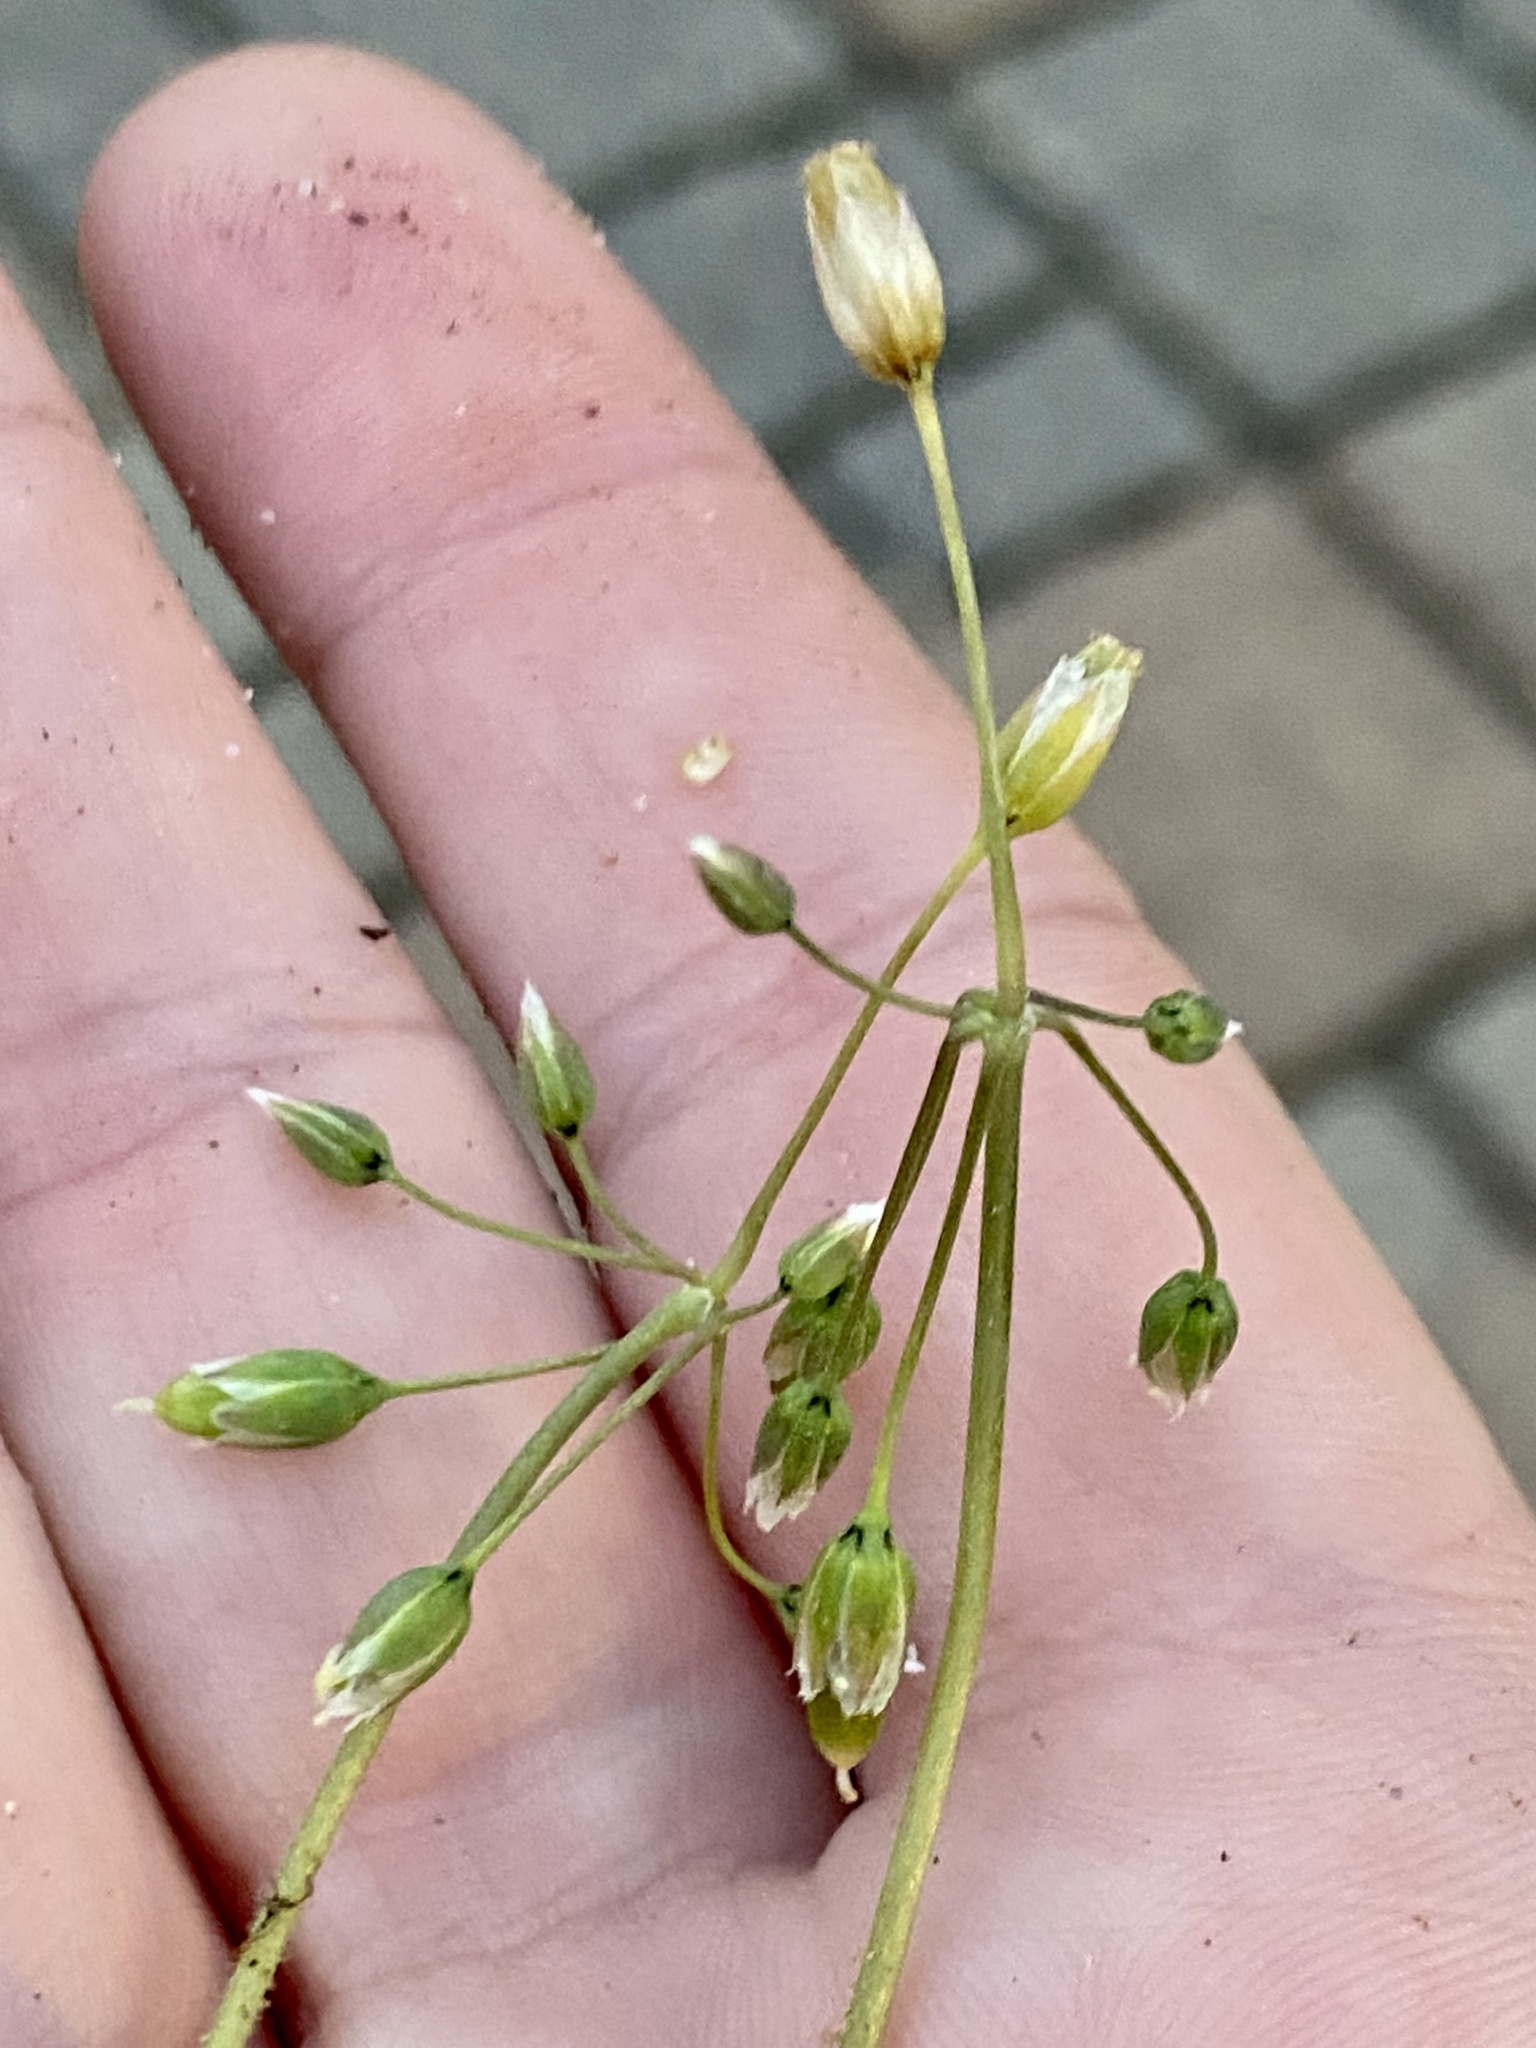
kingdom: Plantae
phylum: Tracheophyta
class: Magnoliopsida
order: Caryophyllales
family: Caryophyllaceae
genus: Holosteum
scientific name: Holosteum umbellatum
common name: Jagged chickweed
